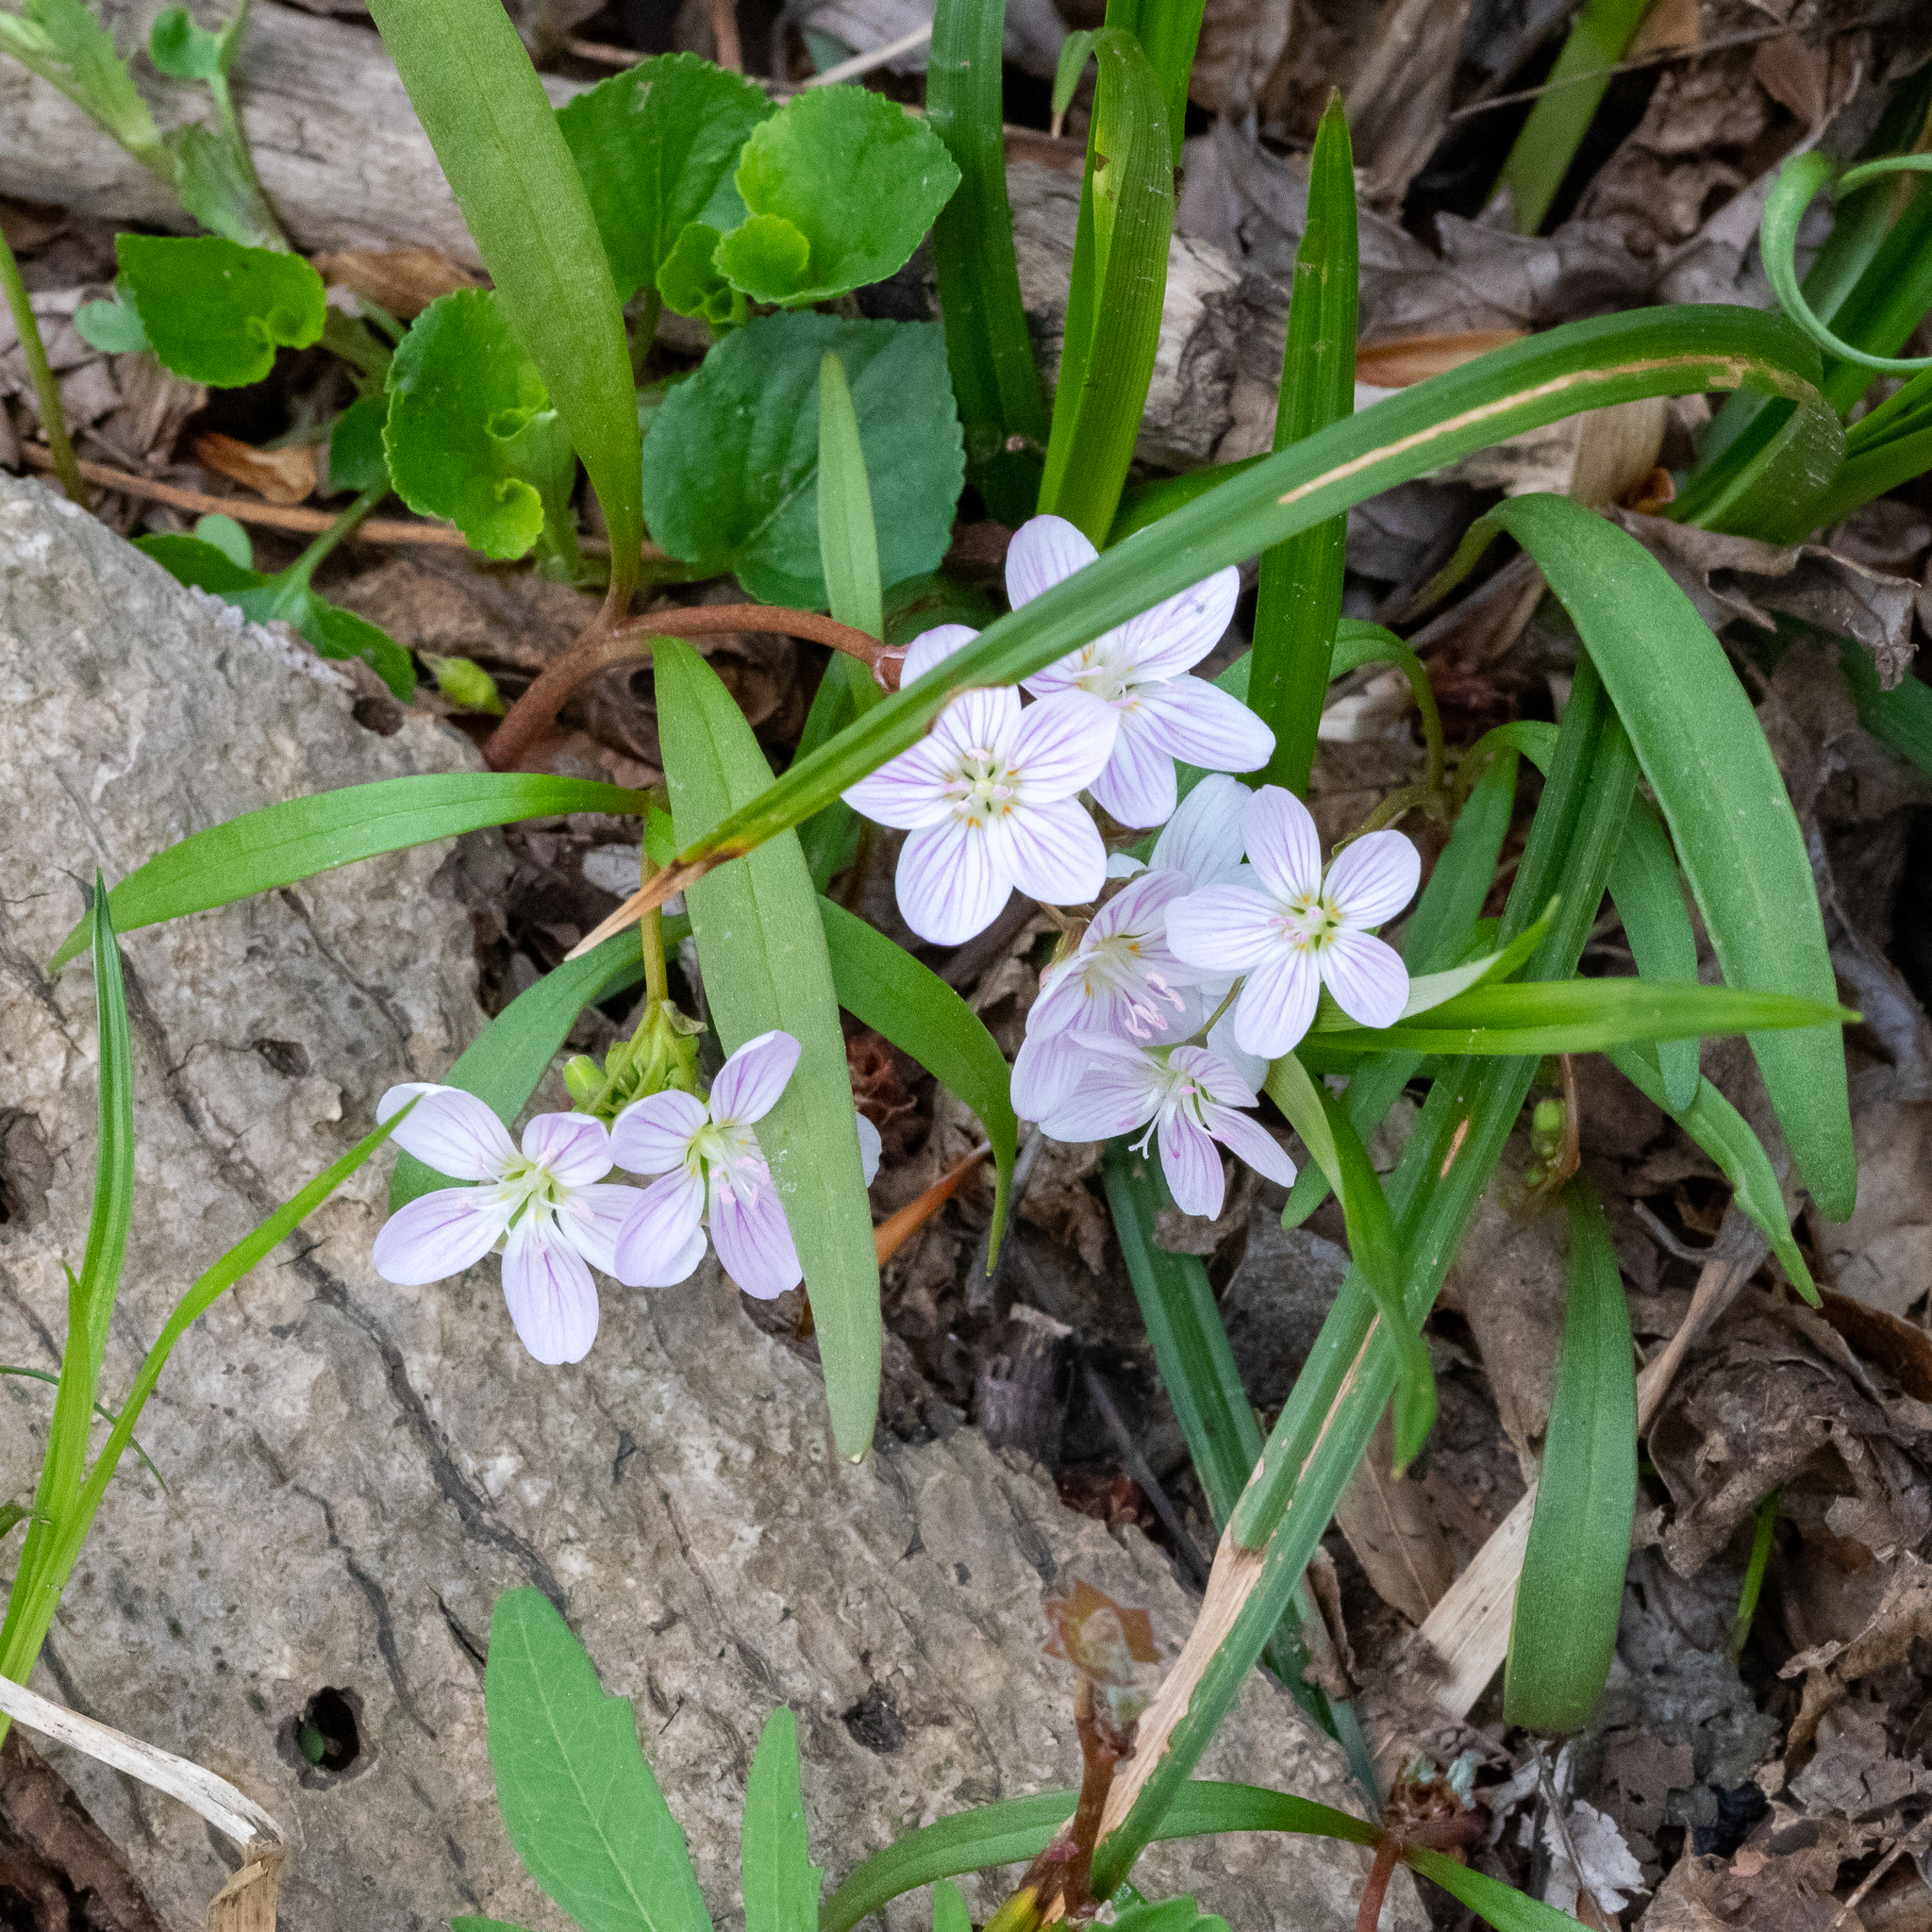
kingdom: Plantae
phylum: Tracheophyta
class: Magnoliopsida
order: Caryophyllales
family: Montiaceae
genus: Claytonia
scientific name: Claytonia virginica
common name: Virginia springbeauty
